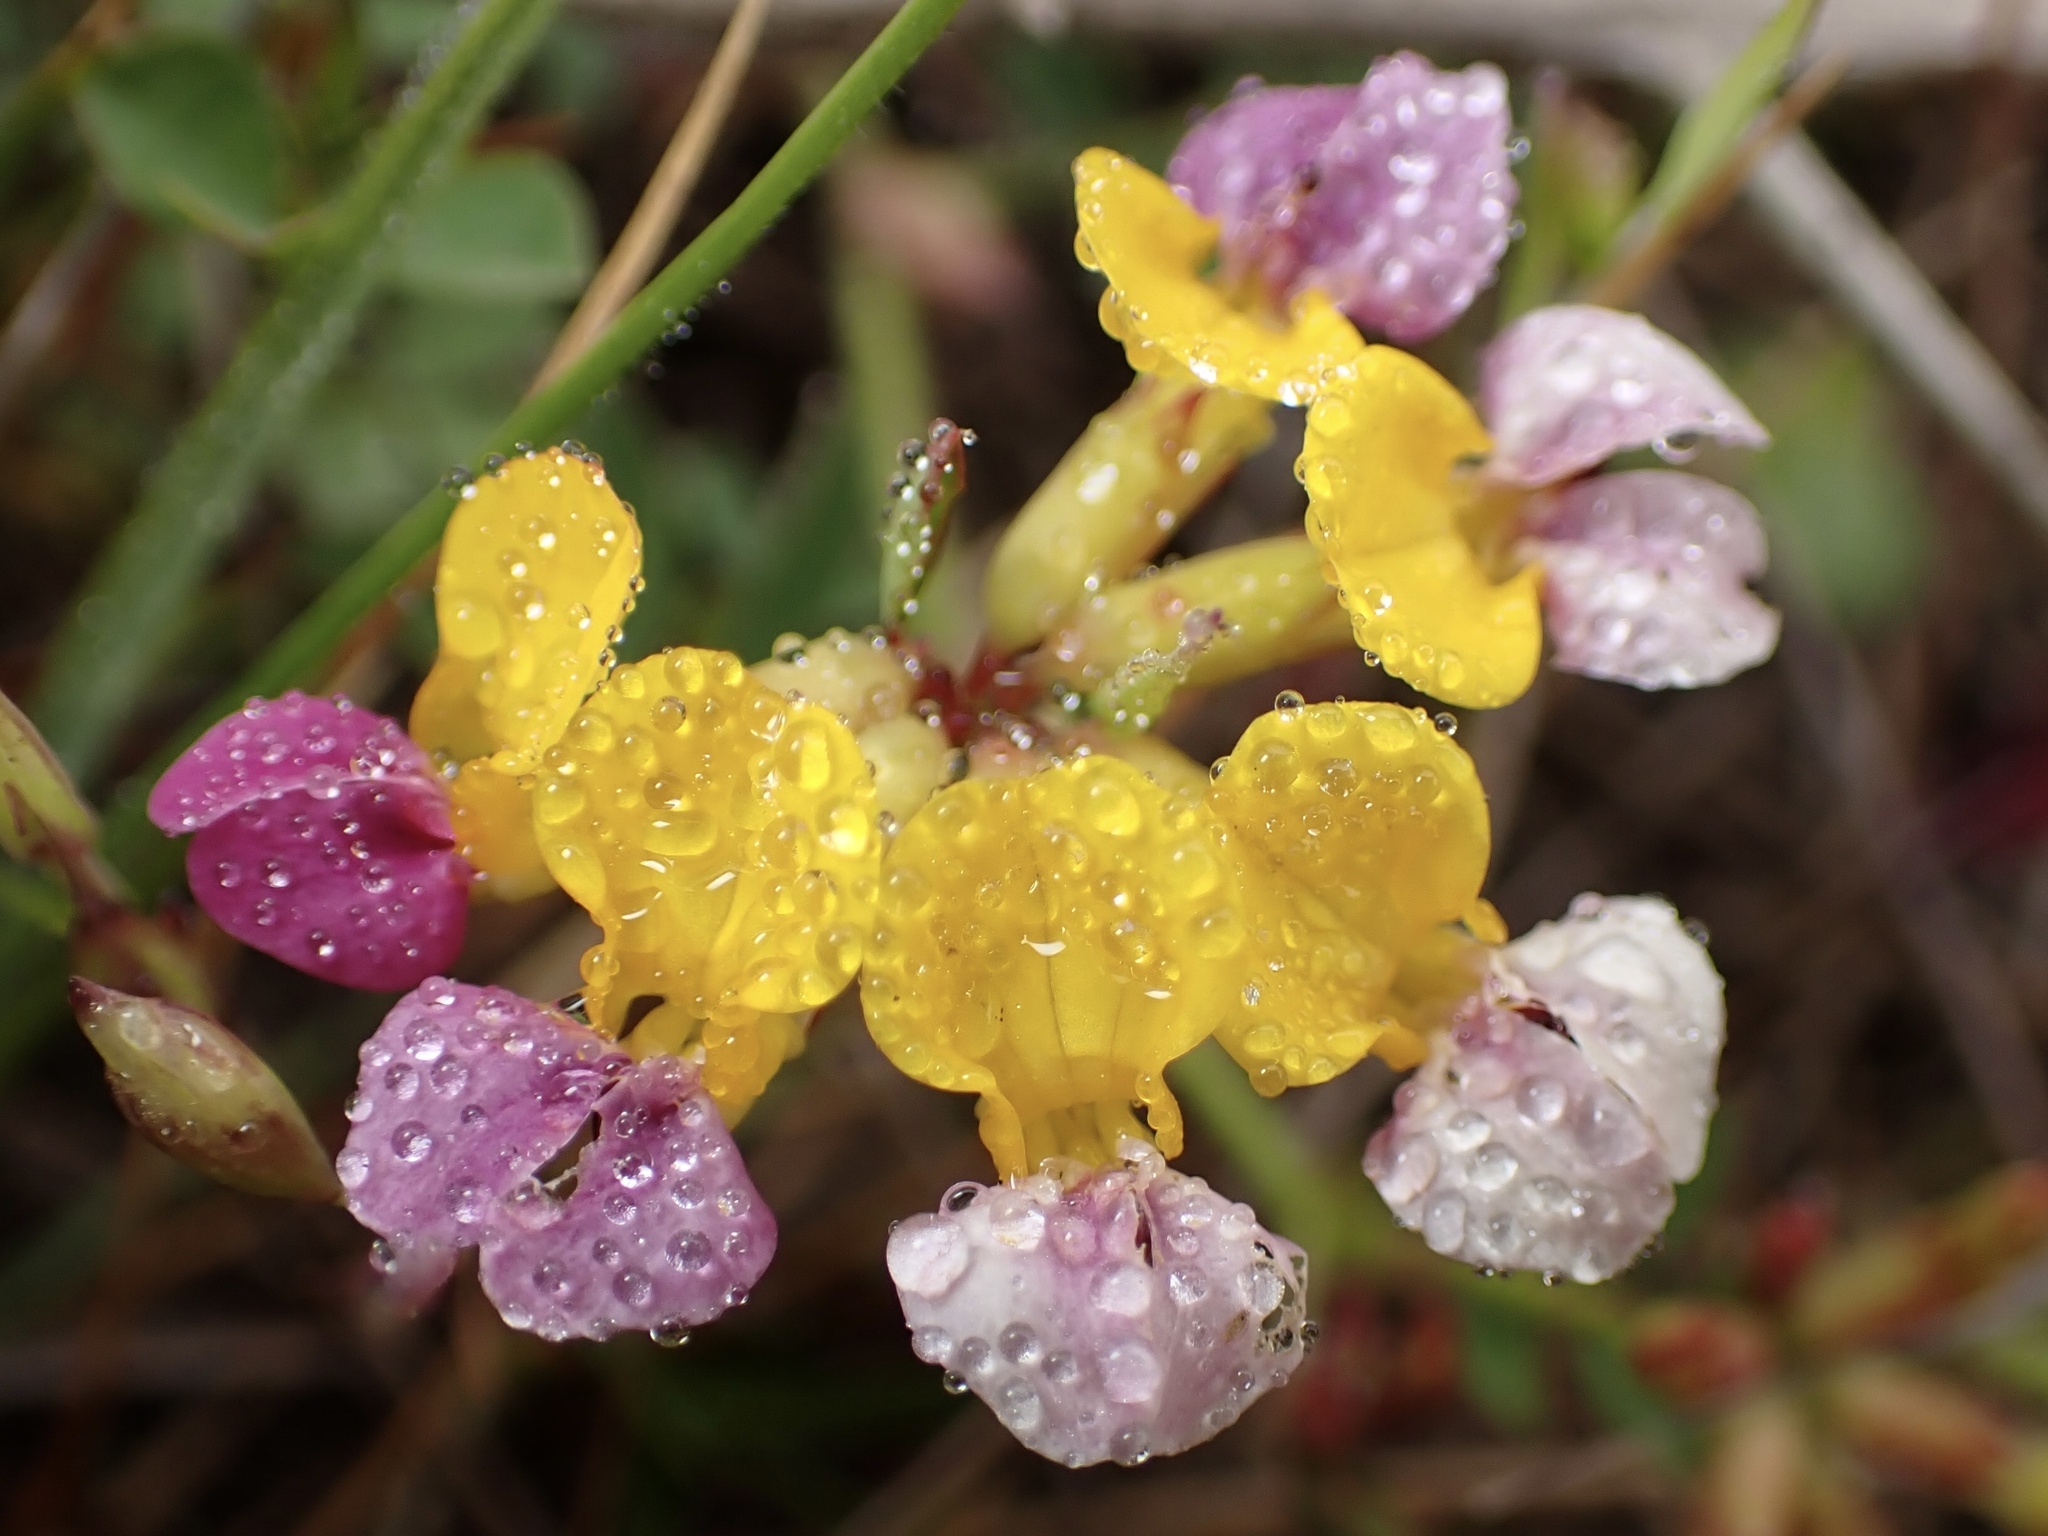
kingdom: Plantae
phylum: Tracheophyta
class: Magnoliopsida
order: Fabales
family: Fabaceae
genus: Hosackia
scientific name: Hosackia gracilis
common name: Seaside bird's-foot lotus
